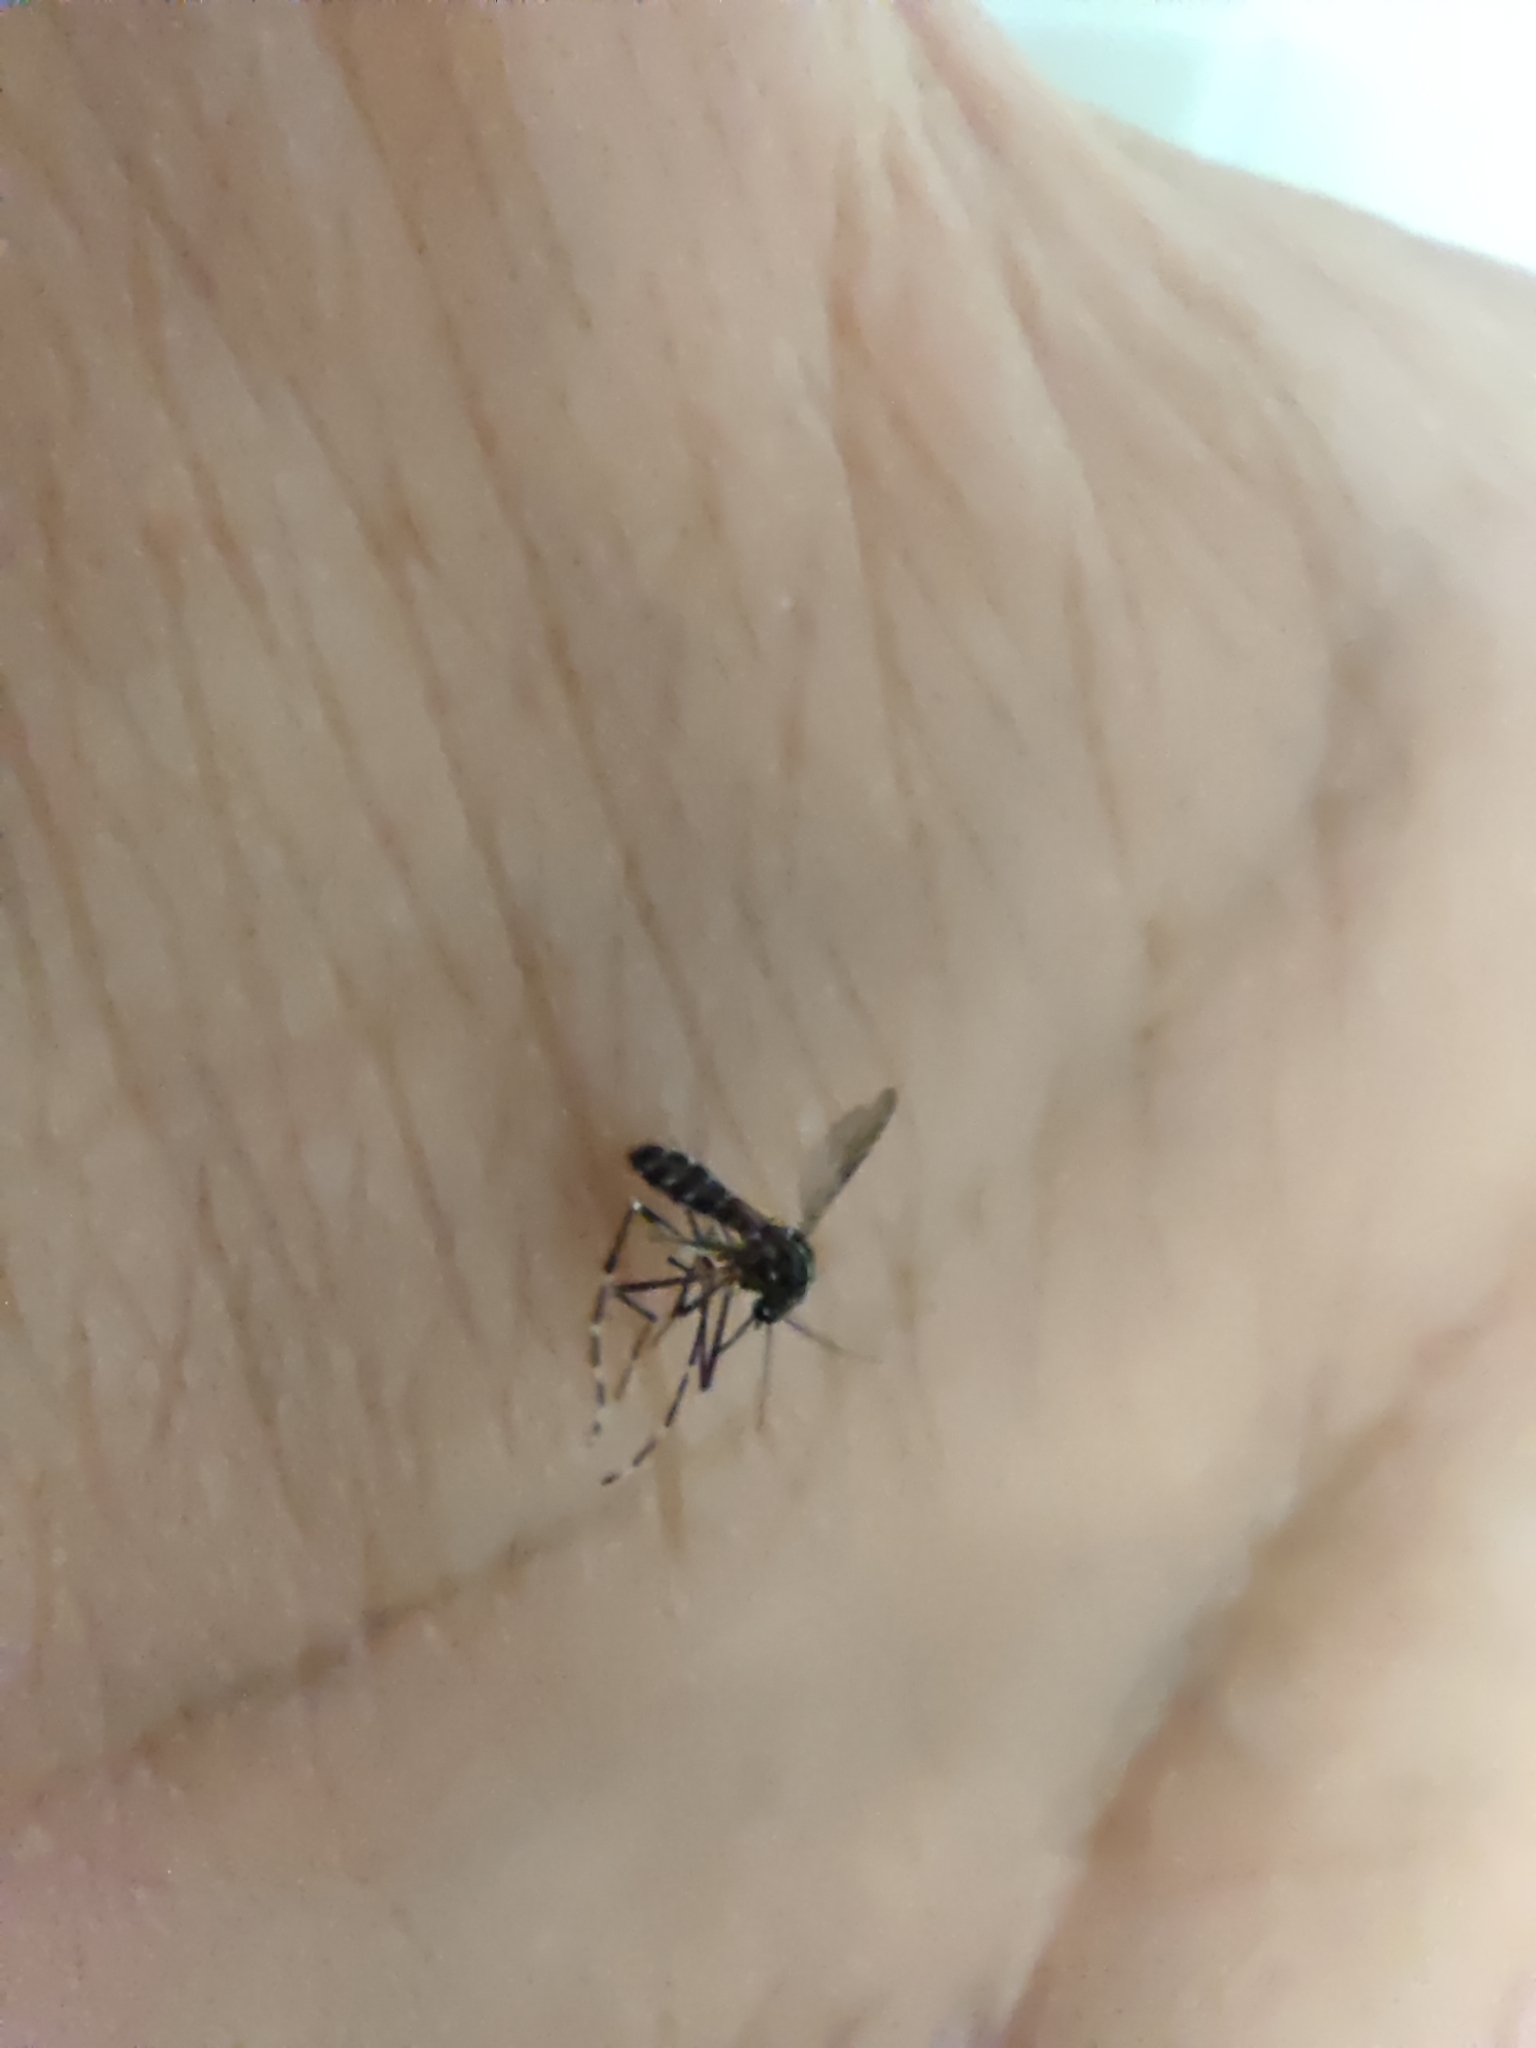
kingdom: Animalia
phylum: Arthropoda
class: Insecta
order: Diptera
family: Culicidae
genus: Aedes
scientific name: Aedes albopictus
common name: Tiger mosquito
